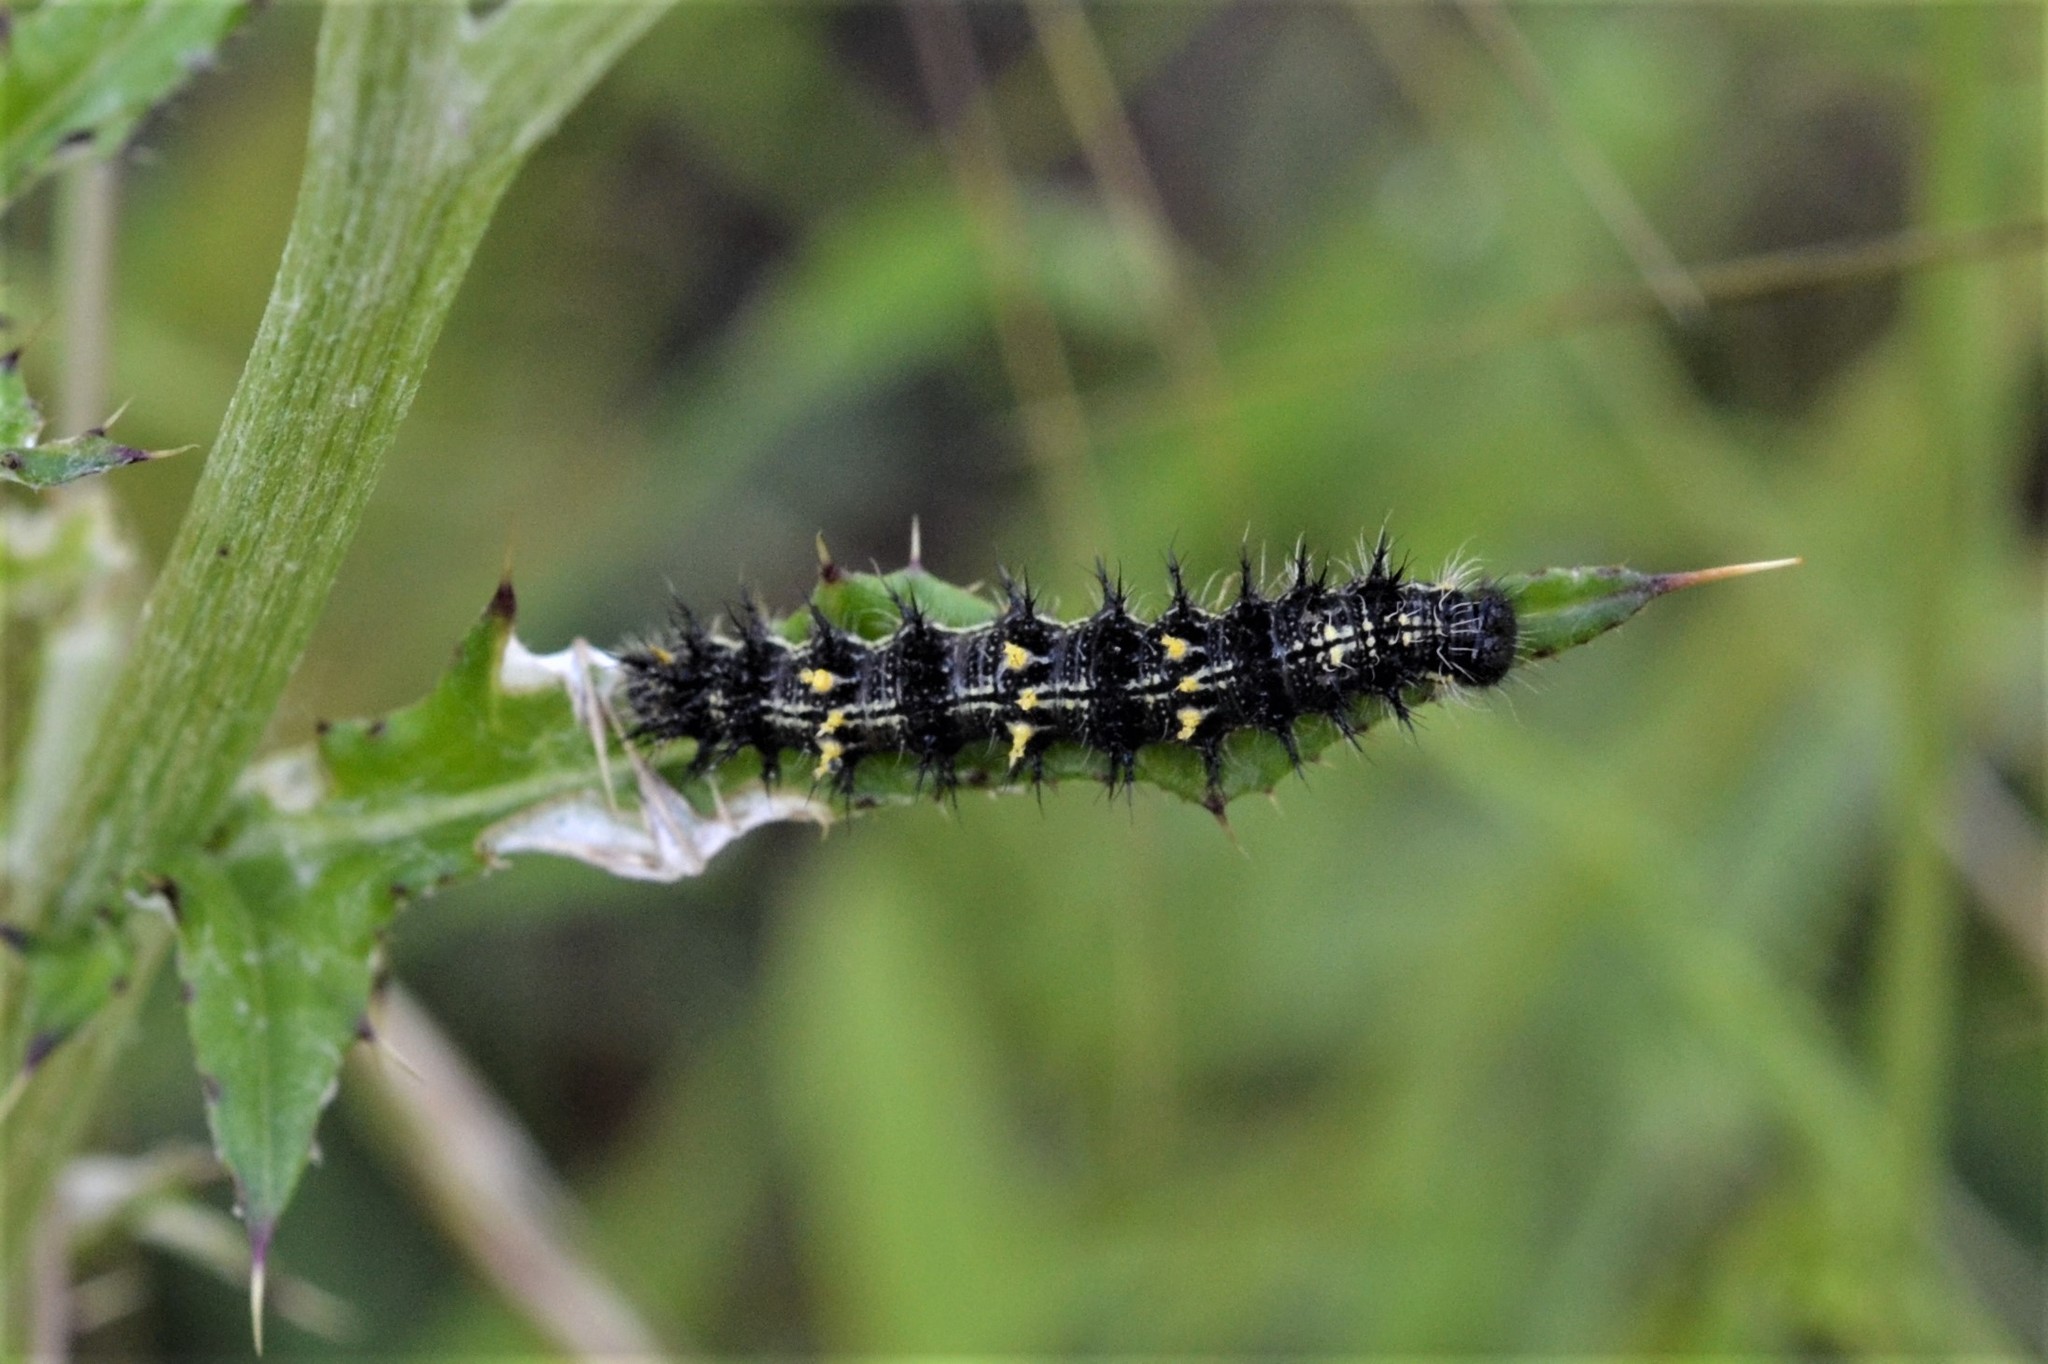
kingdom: Animalia
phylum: Arthropoda
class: Insecta
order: Lepidoptera
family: Nymphalidae
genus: Vanessa
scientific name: Vanessa cardui
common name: Painted lady
